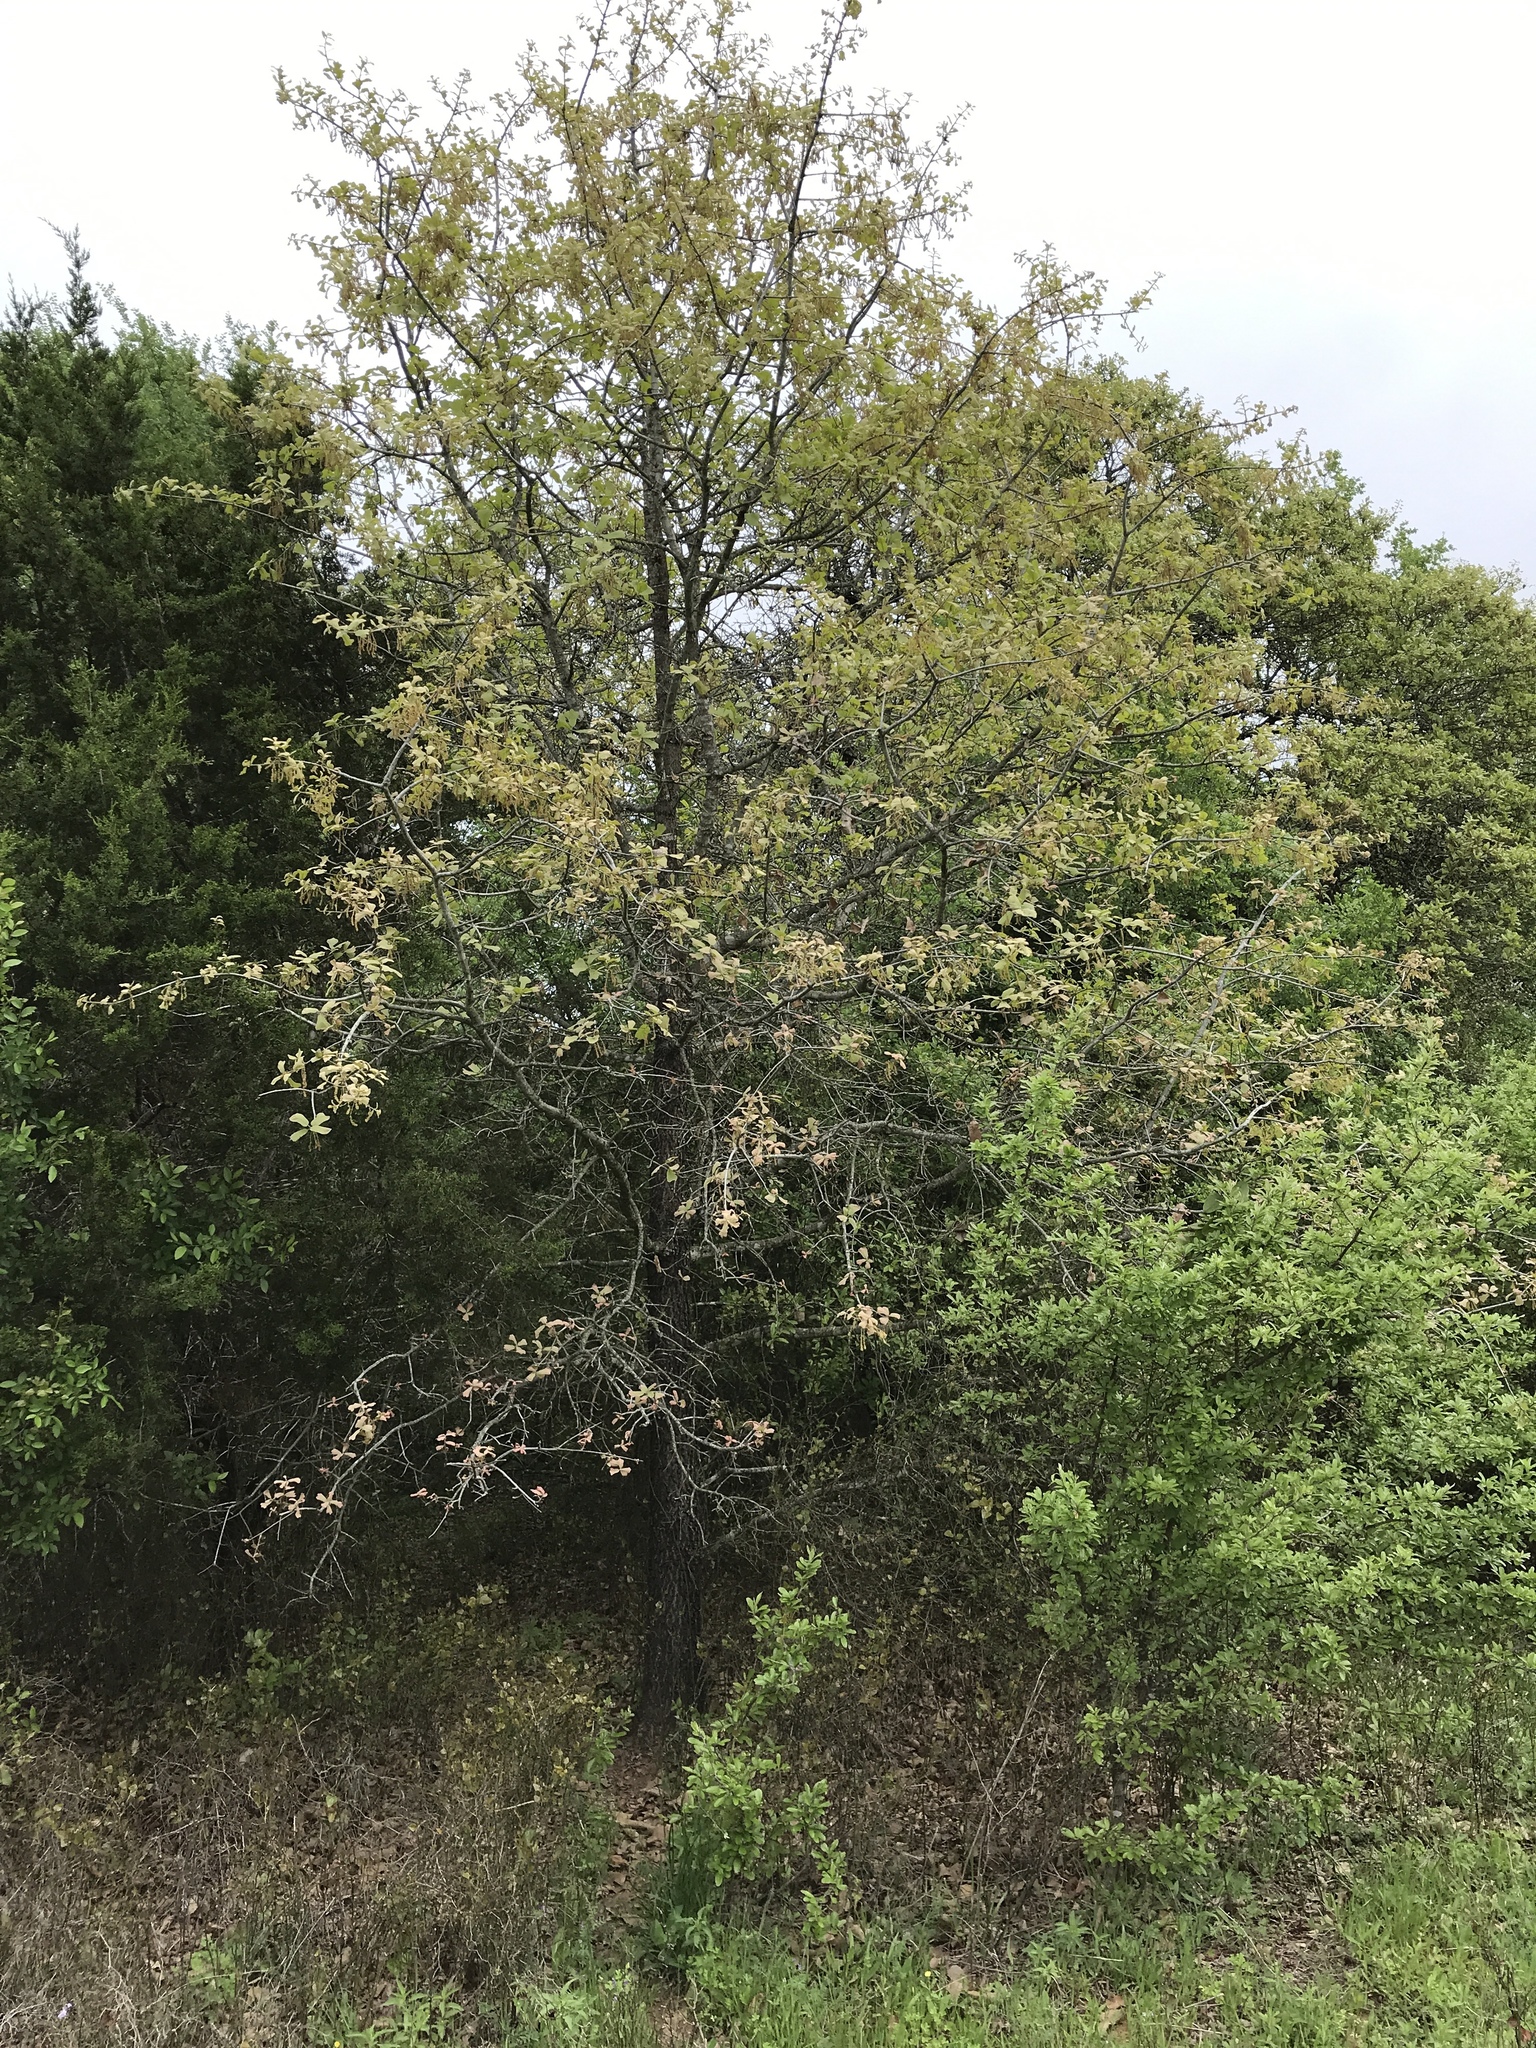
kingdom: Plantae
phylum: Tracheophyta
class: Magnoliopsida
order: Fagales
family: Fagaceae
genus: Quercus
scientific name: Quercus marilandica
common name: Blackjack oak
